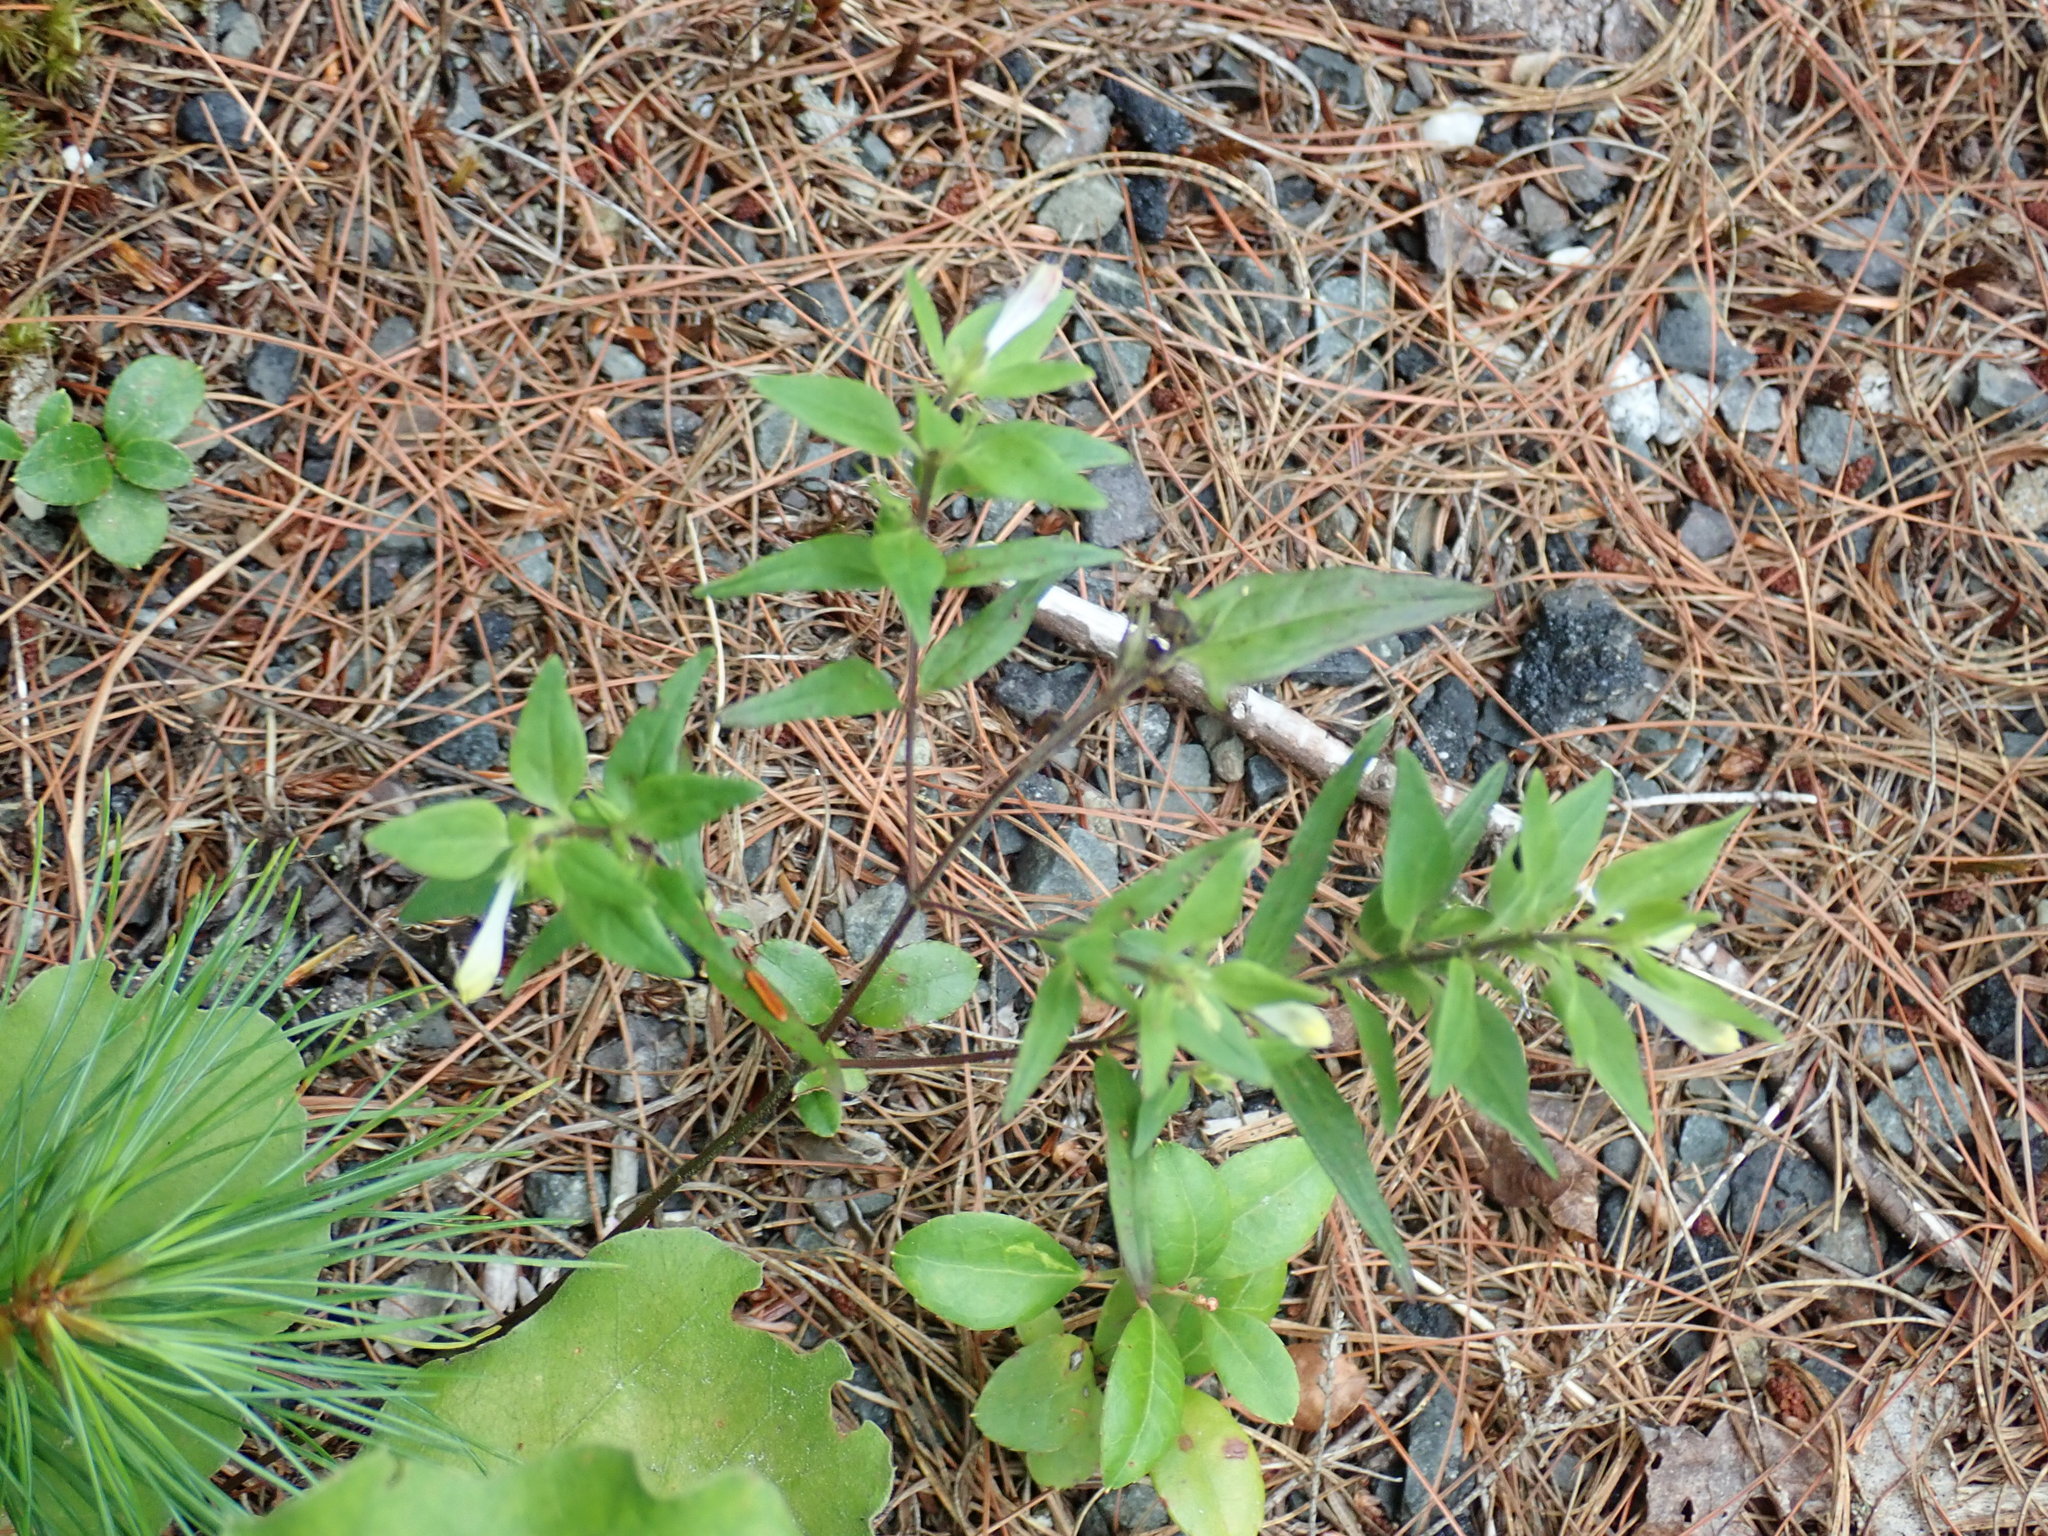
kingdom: Plantae
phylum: Tracheophyta
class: Magnoliopsida
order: Lamiales
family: Orobanchaceae
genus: Melampyrum
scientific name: Melampyrum lineare
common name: American cow-wheat
